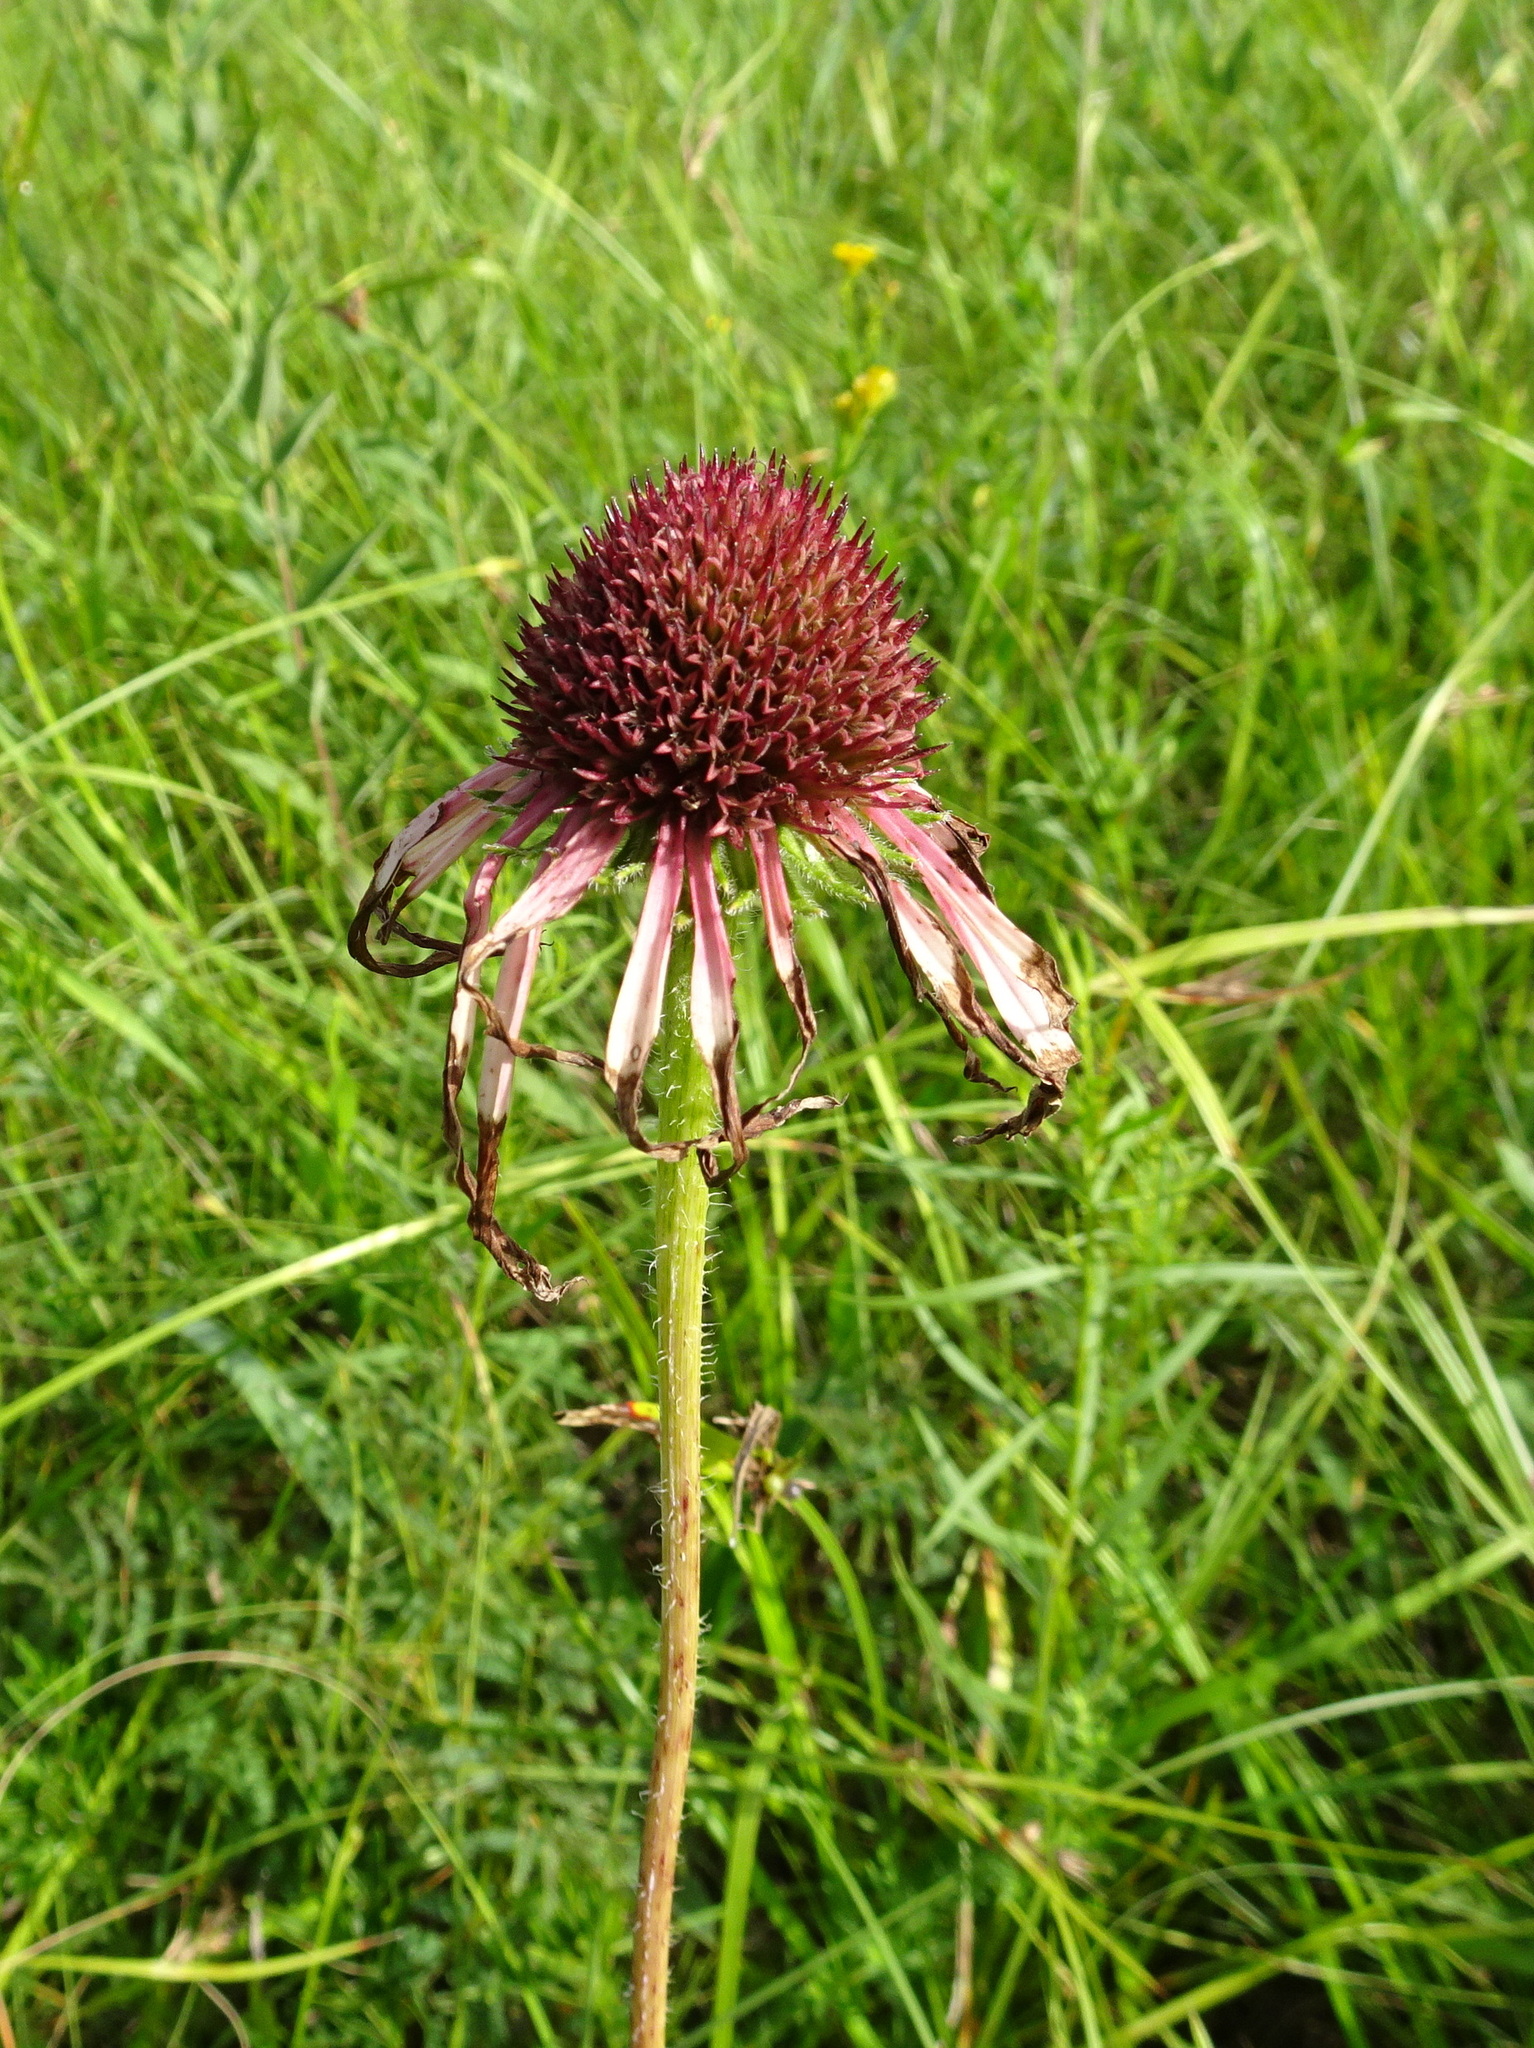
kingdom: Plantae
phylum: Tracheophyta
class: Magnoliopsida
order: Asterales
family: Asteraceae
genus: Echinacea
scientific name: Echinacea angustifolia
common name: Black-sampson echinacea
